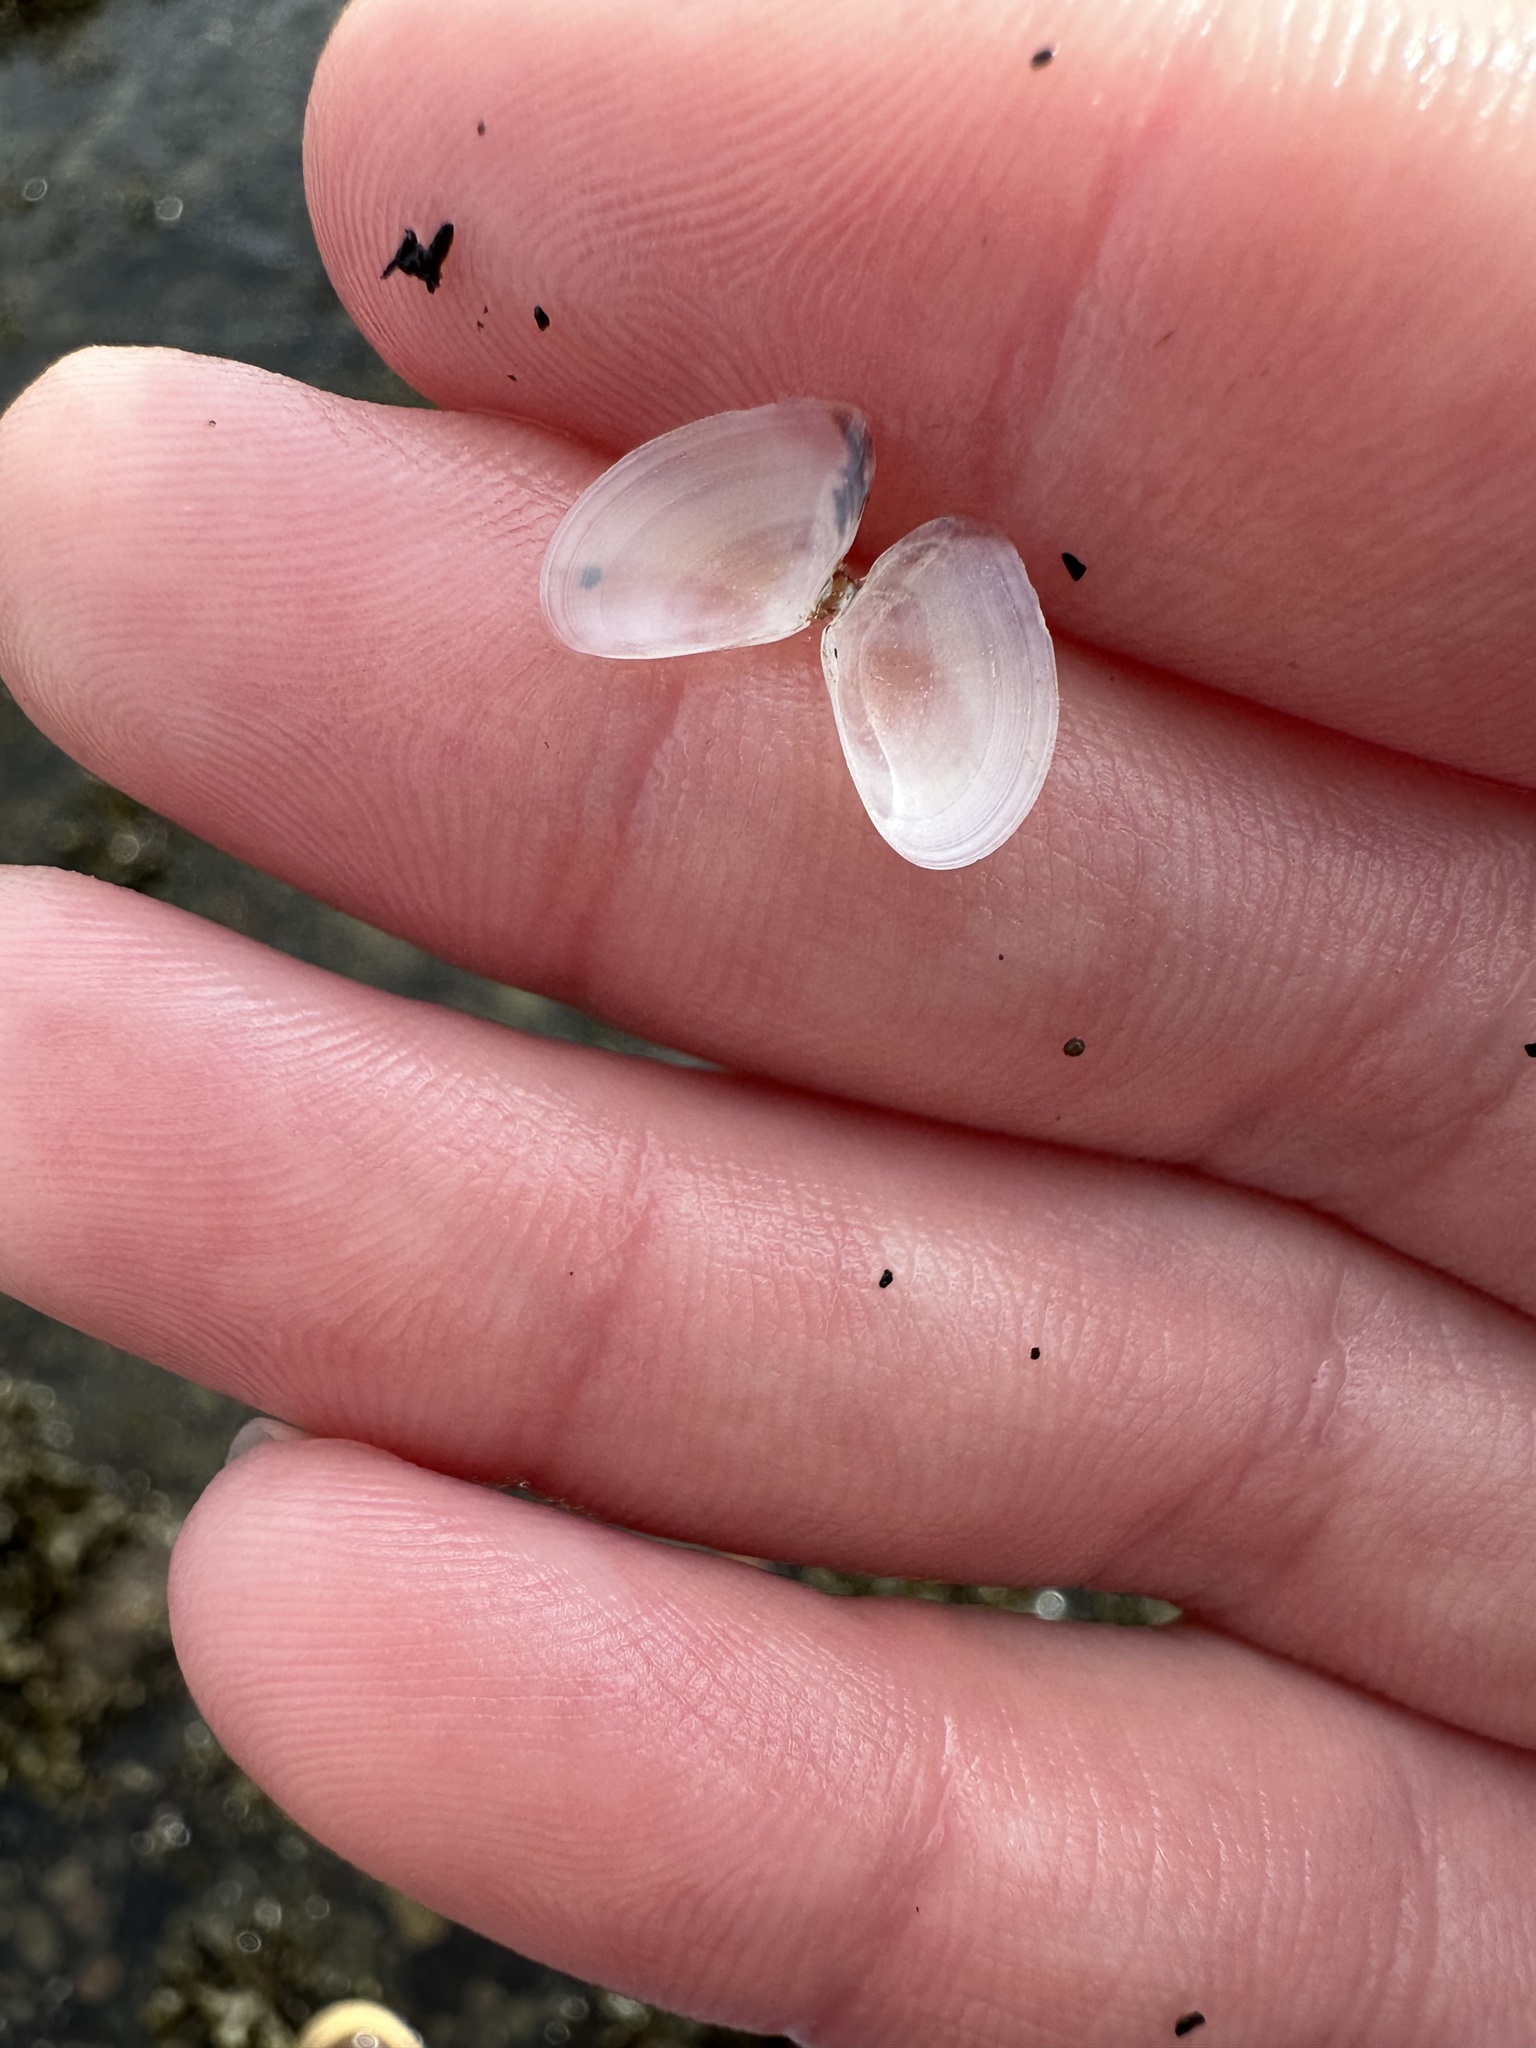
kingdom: Animalia
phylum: Mollusca
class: Bivalvia
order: Cardiida
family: Tellinidae
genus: Ameritella
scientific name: Ameritella agilis
